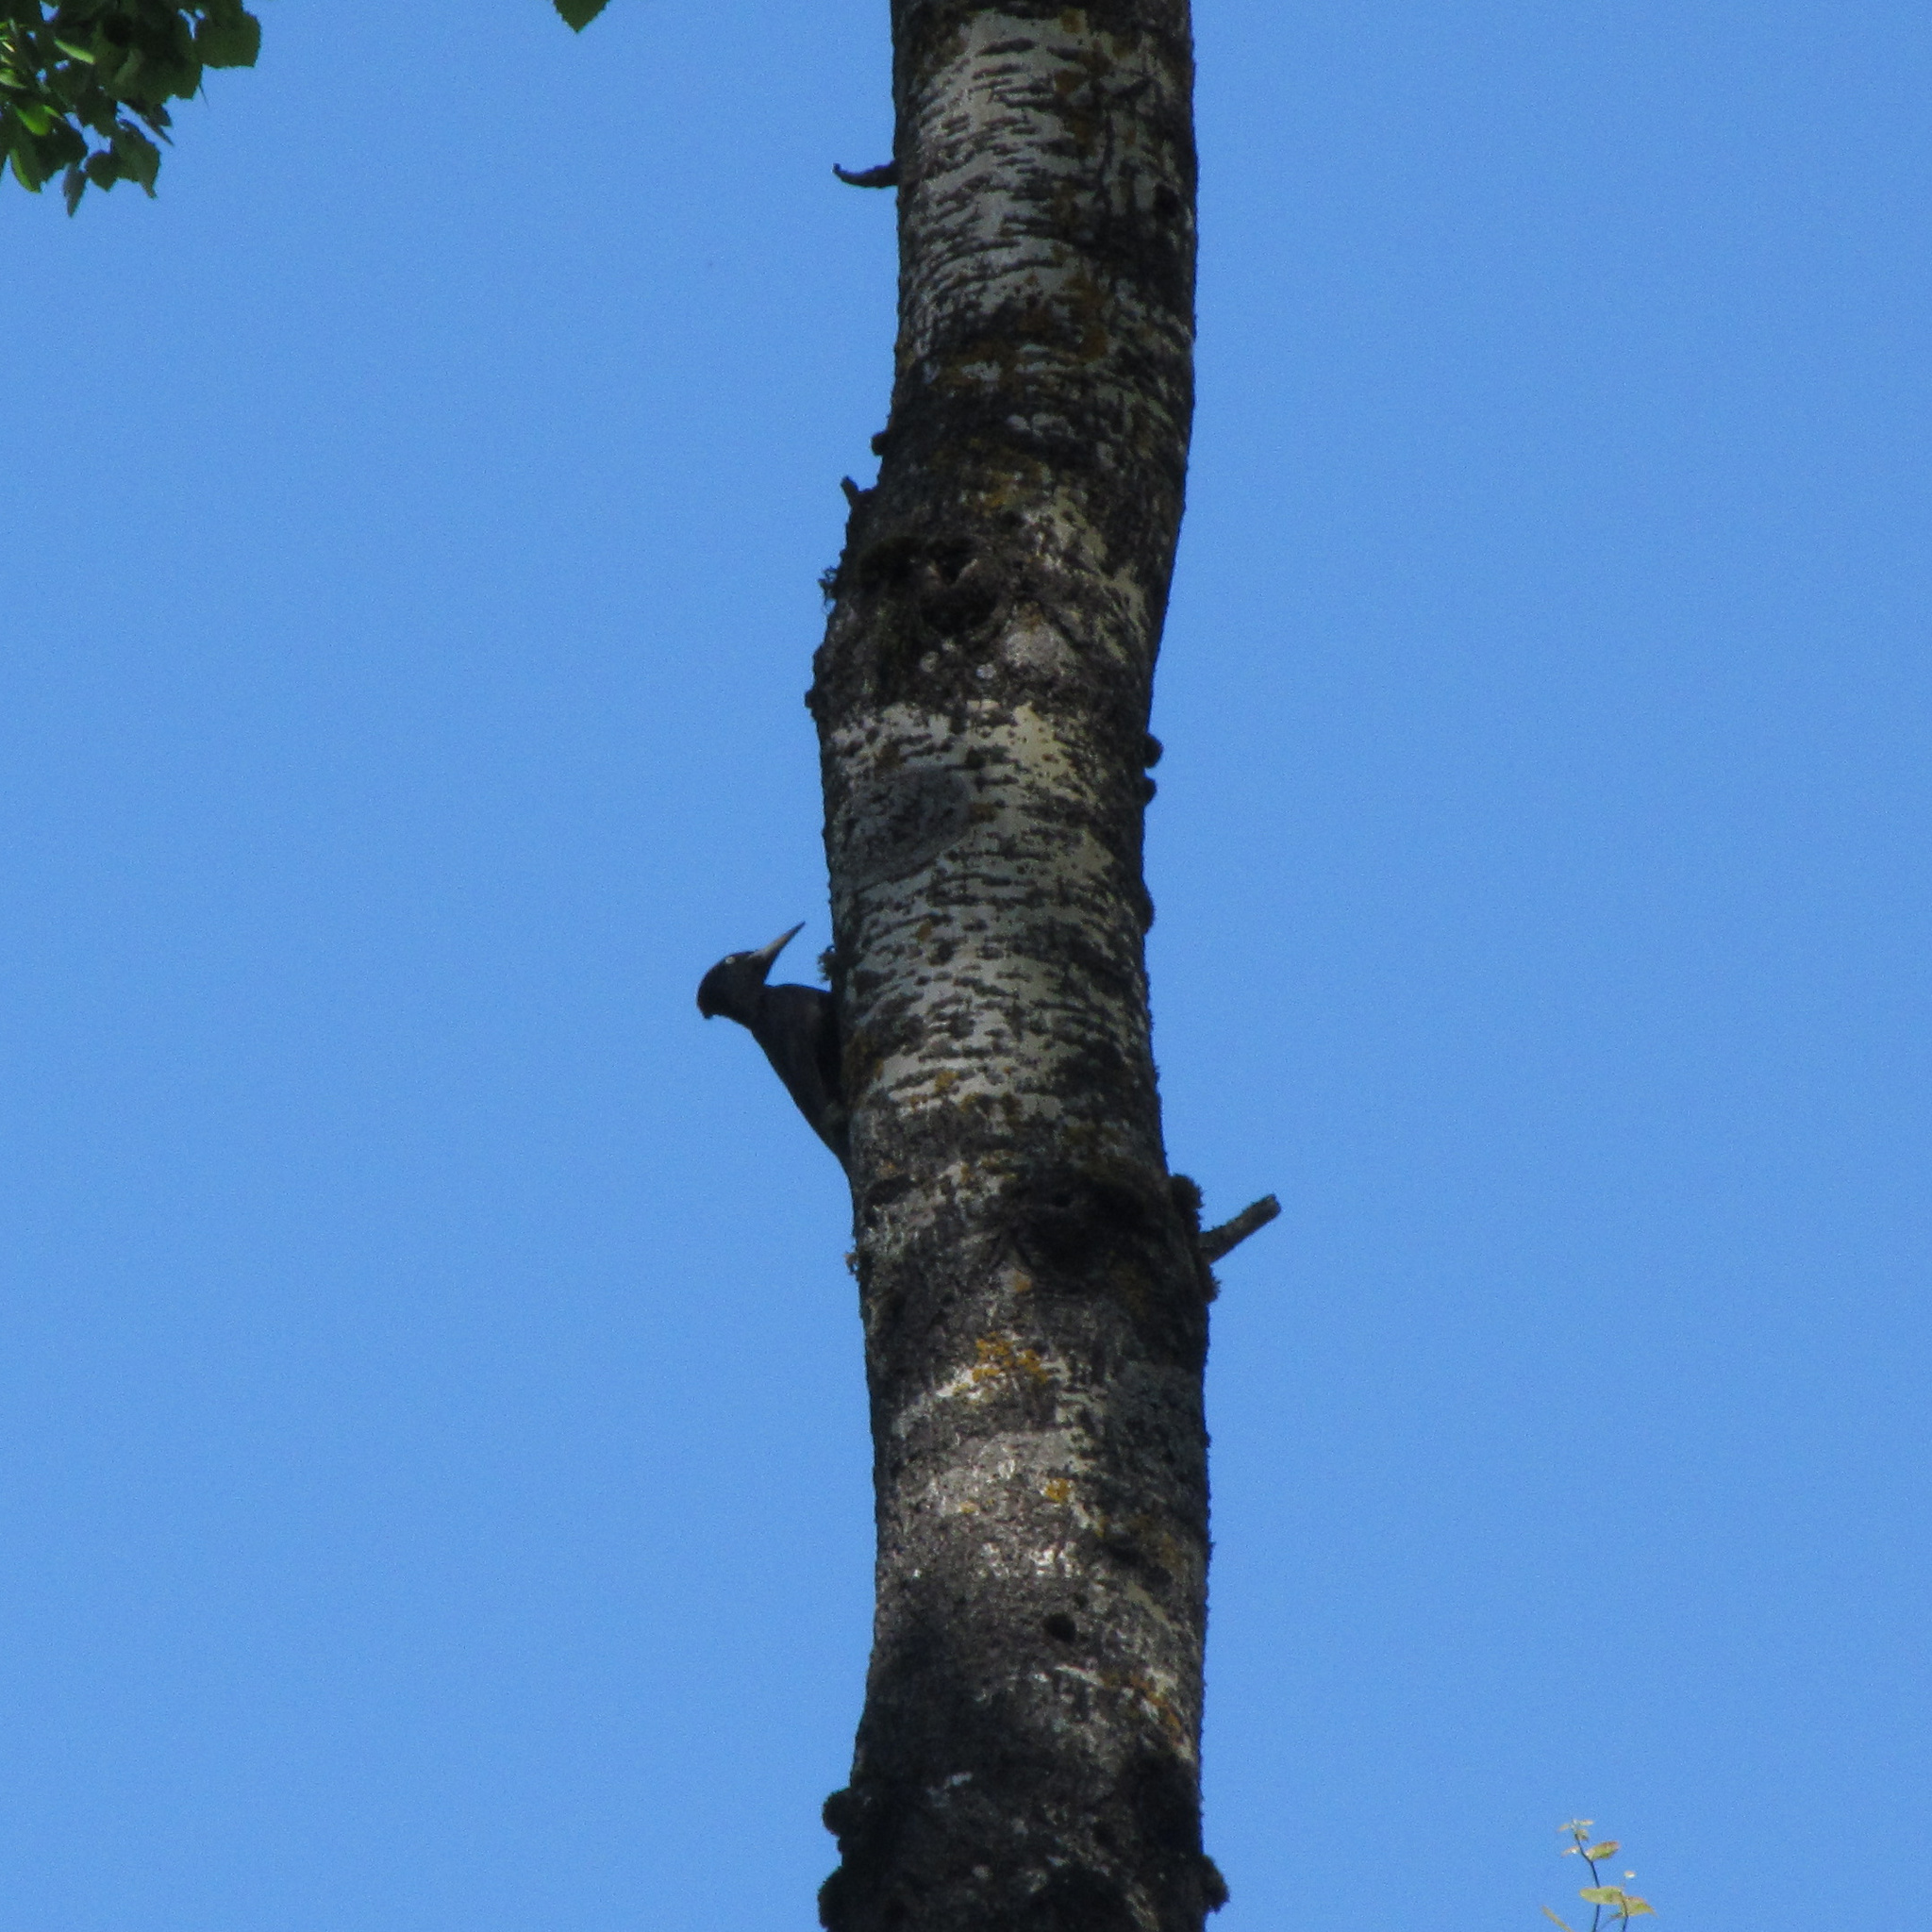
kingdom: Animalia
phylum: Chordata
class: Aves
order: Piciformes
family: Picidae
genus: Dryocopus
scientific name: Dryocopus martius
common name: Black woodpecker
